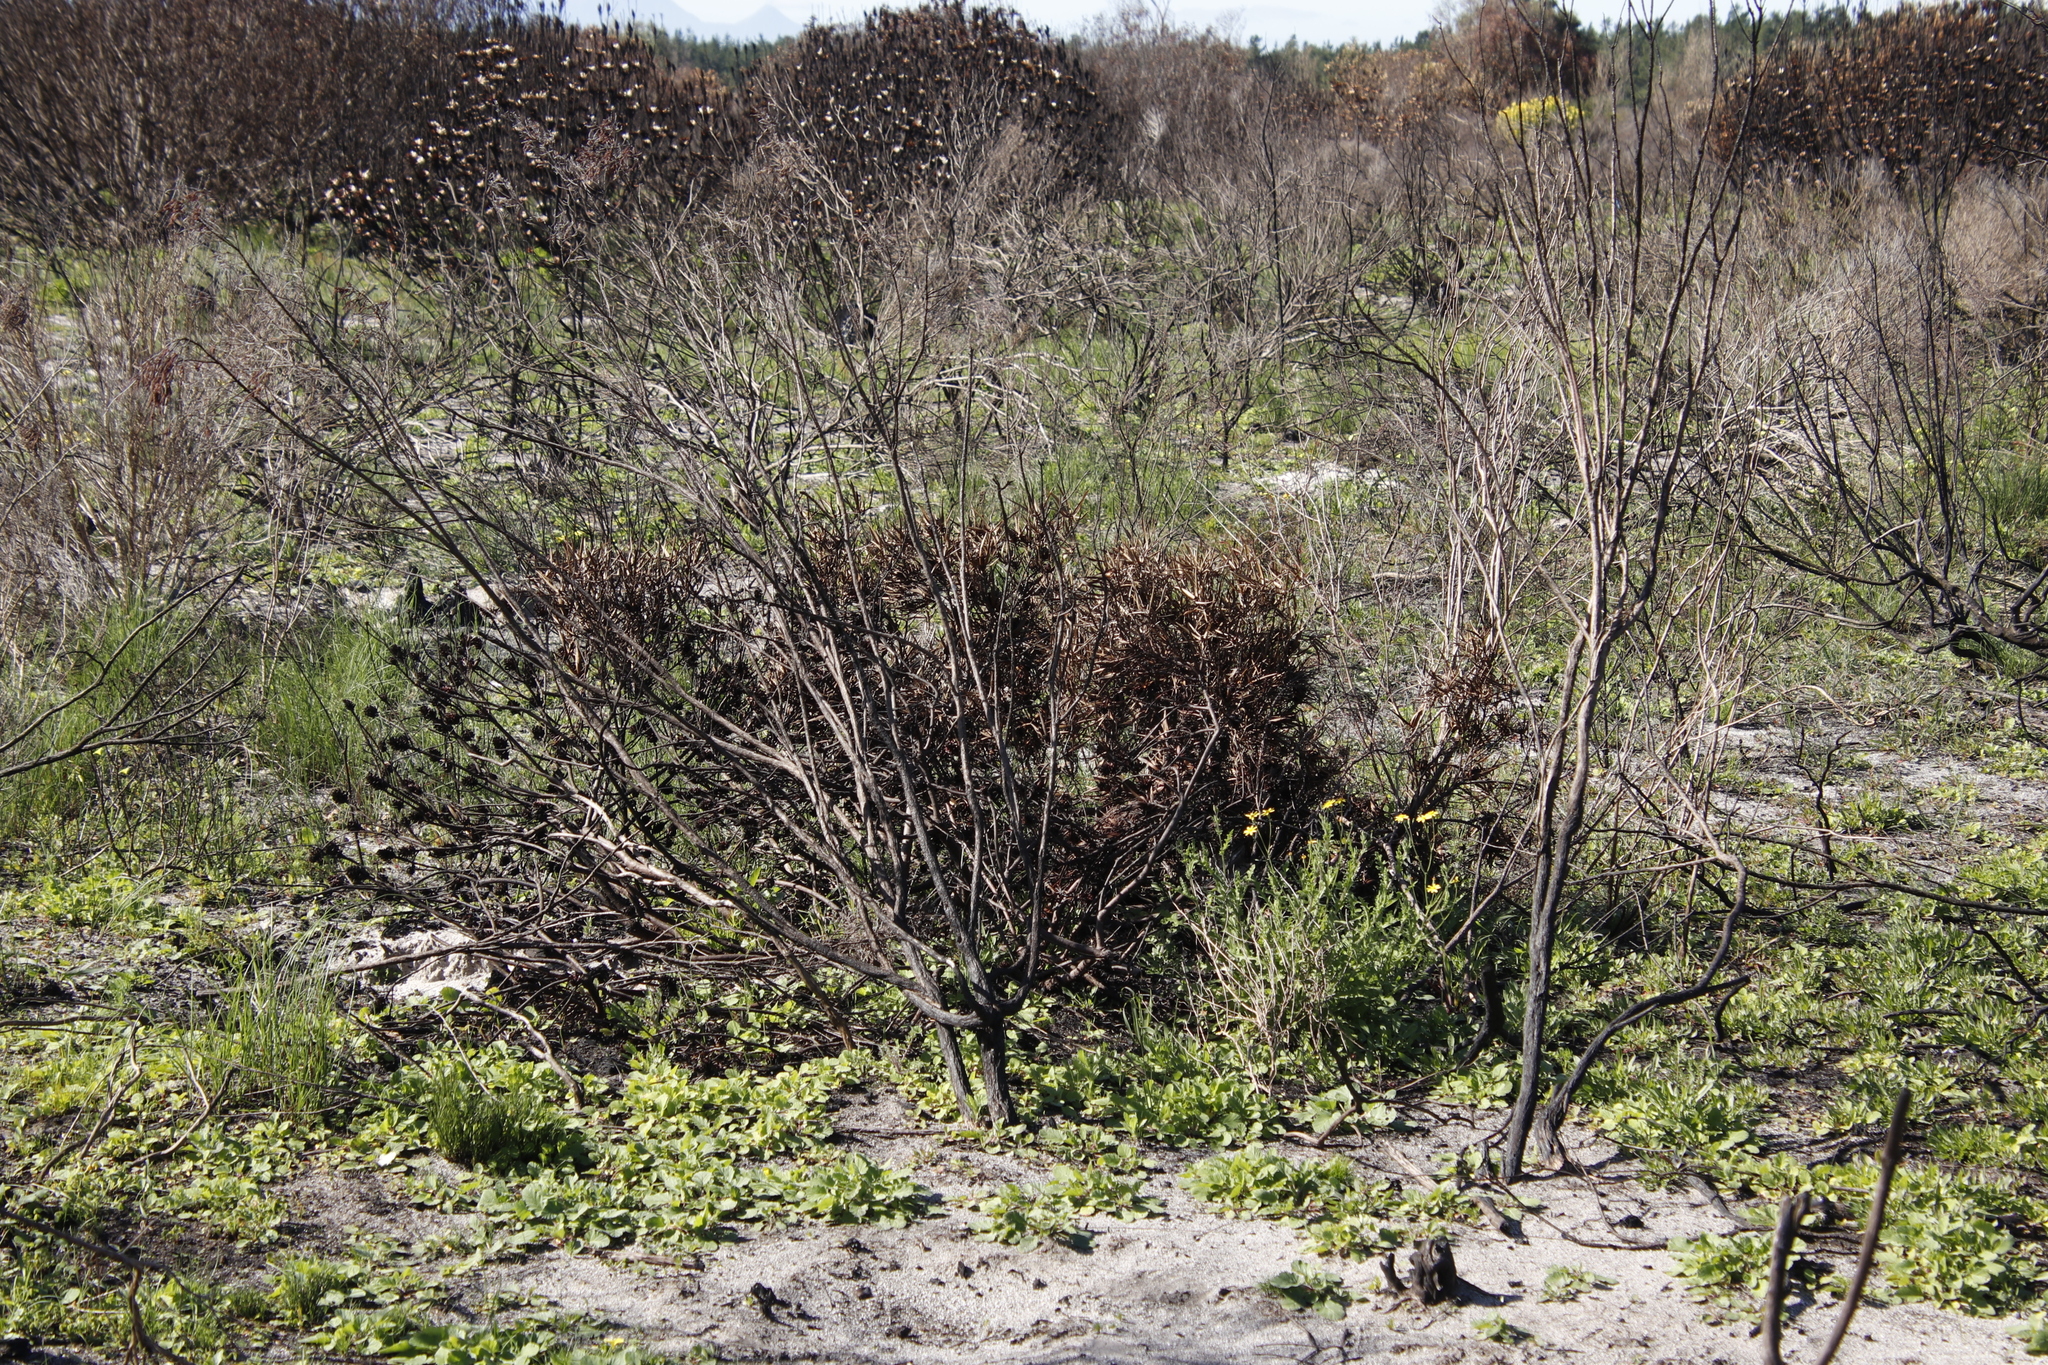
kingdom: Plantae
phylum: Tracheophyta
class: Magnoliopsida
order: Proteales
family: Proteaceae
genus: Leucadendron
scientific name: Leucadendron salignum
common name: Common sunshine conebush
